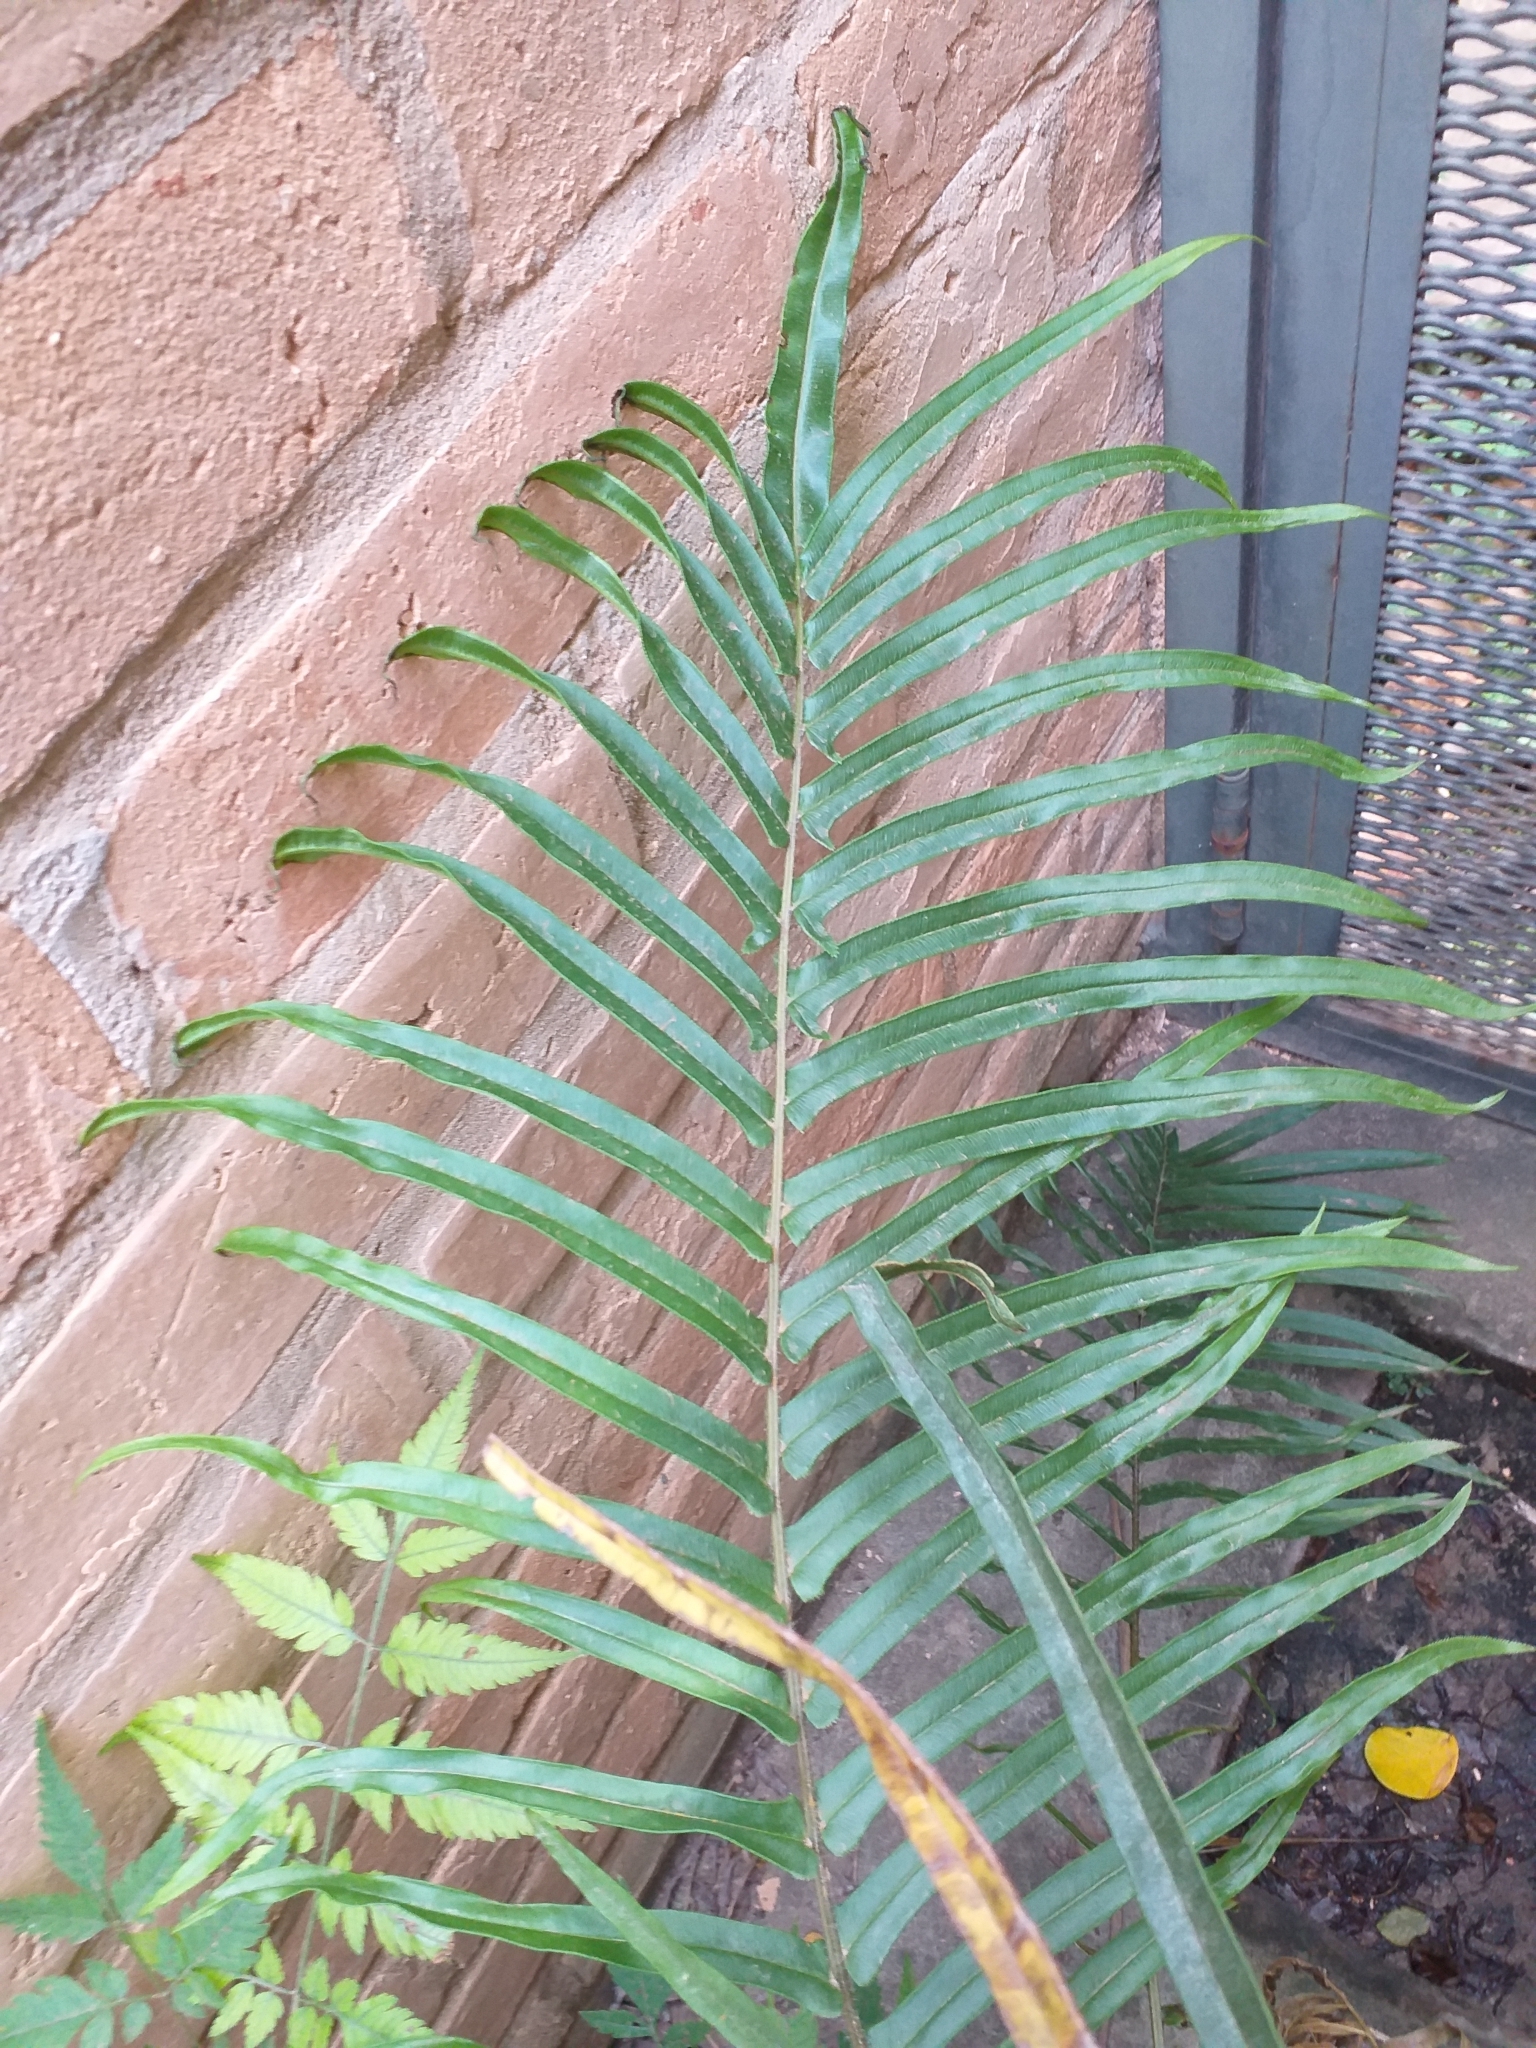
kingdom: Plantae
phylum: Tracheophyta
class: Polypodiopsida
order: Polypodiales
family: Pteridaceae
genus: Pteris
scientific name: Pteris vittata
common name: Ladder brake
